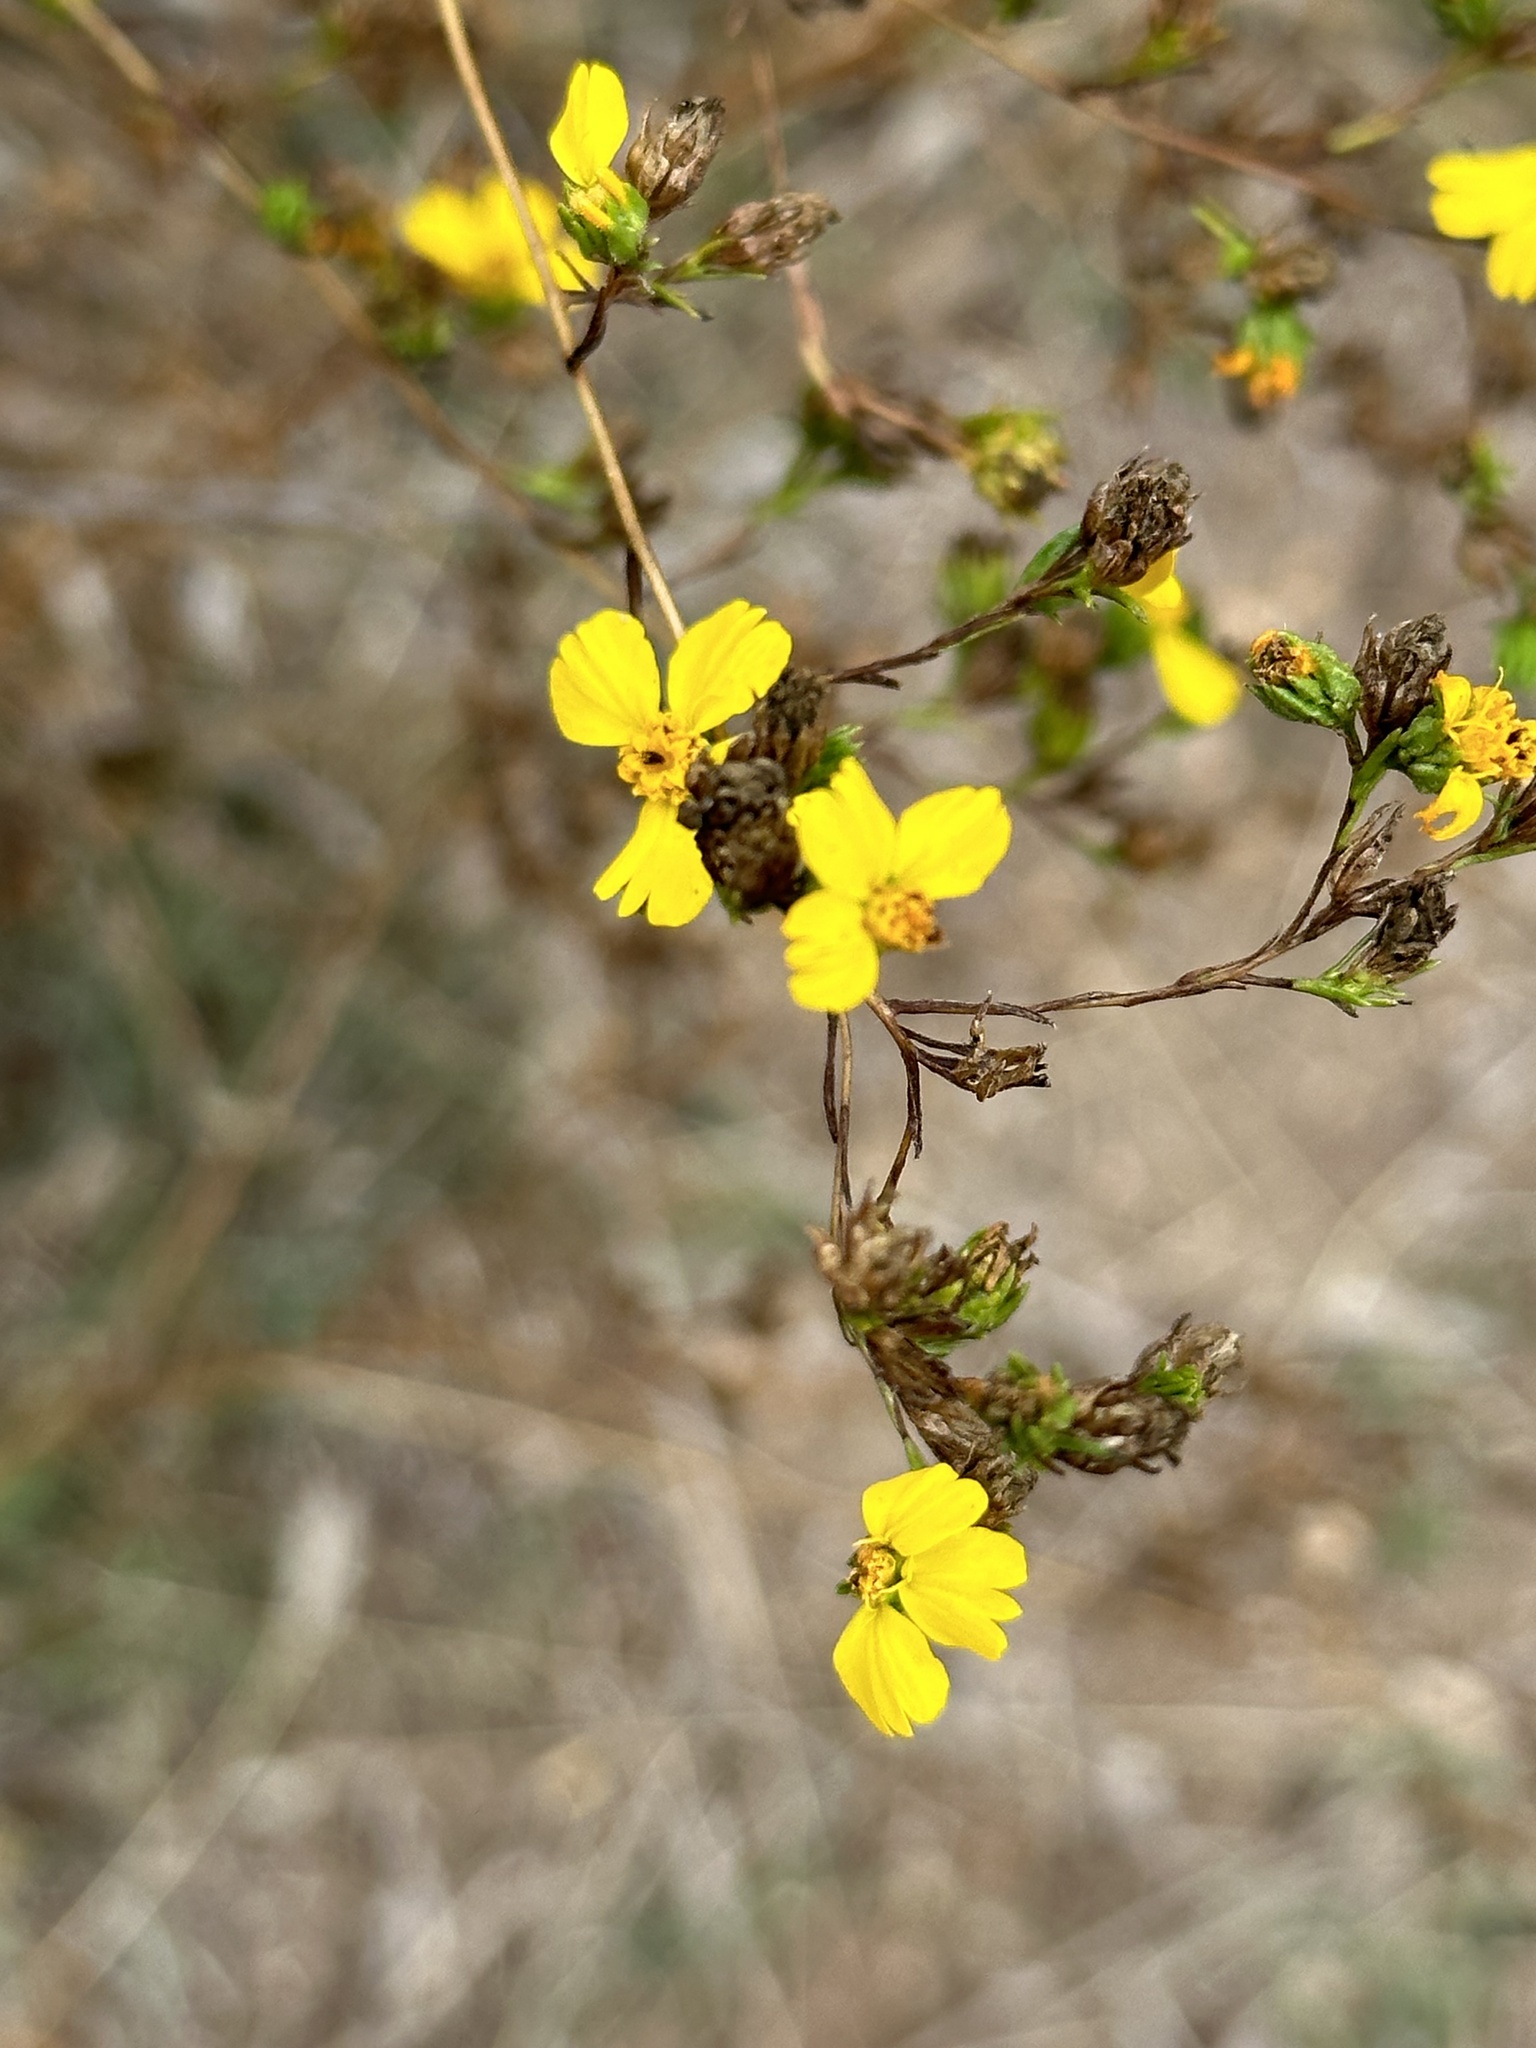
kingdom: Plantae
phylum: Tracheophyta
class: Magnoliopsida
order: Asterales
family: Asteraceae
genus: Deinandra
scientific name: Deinandra fasciculata
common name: Clustered tarweed
